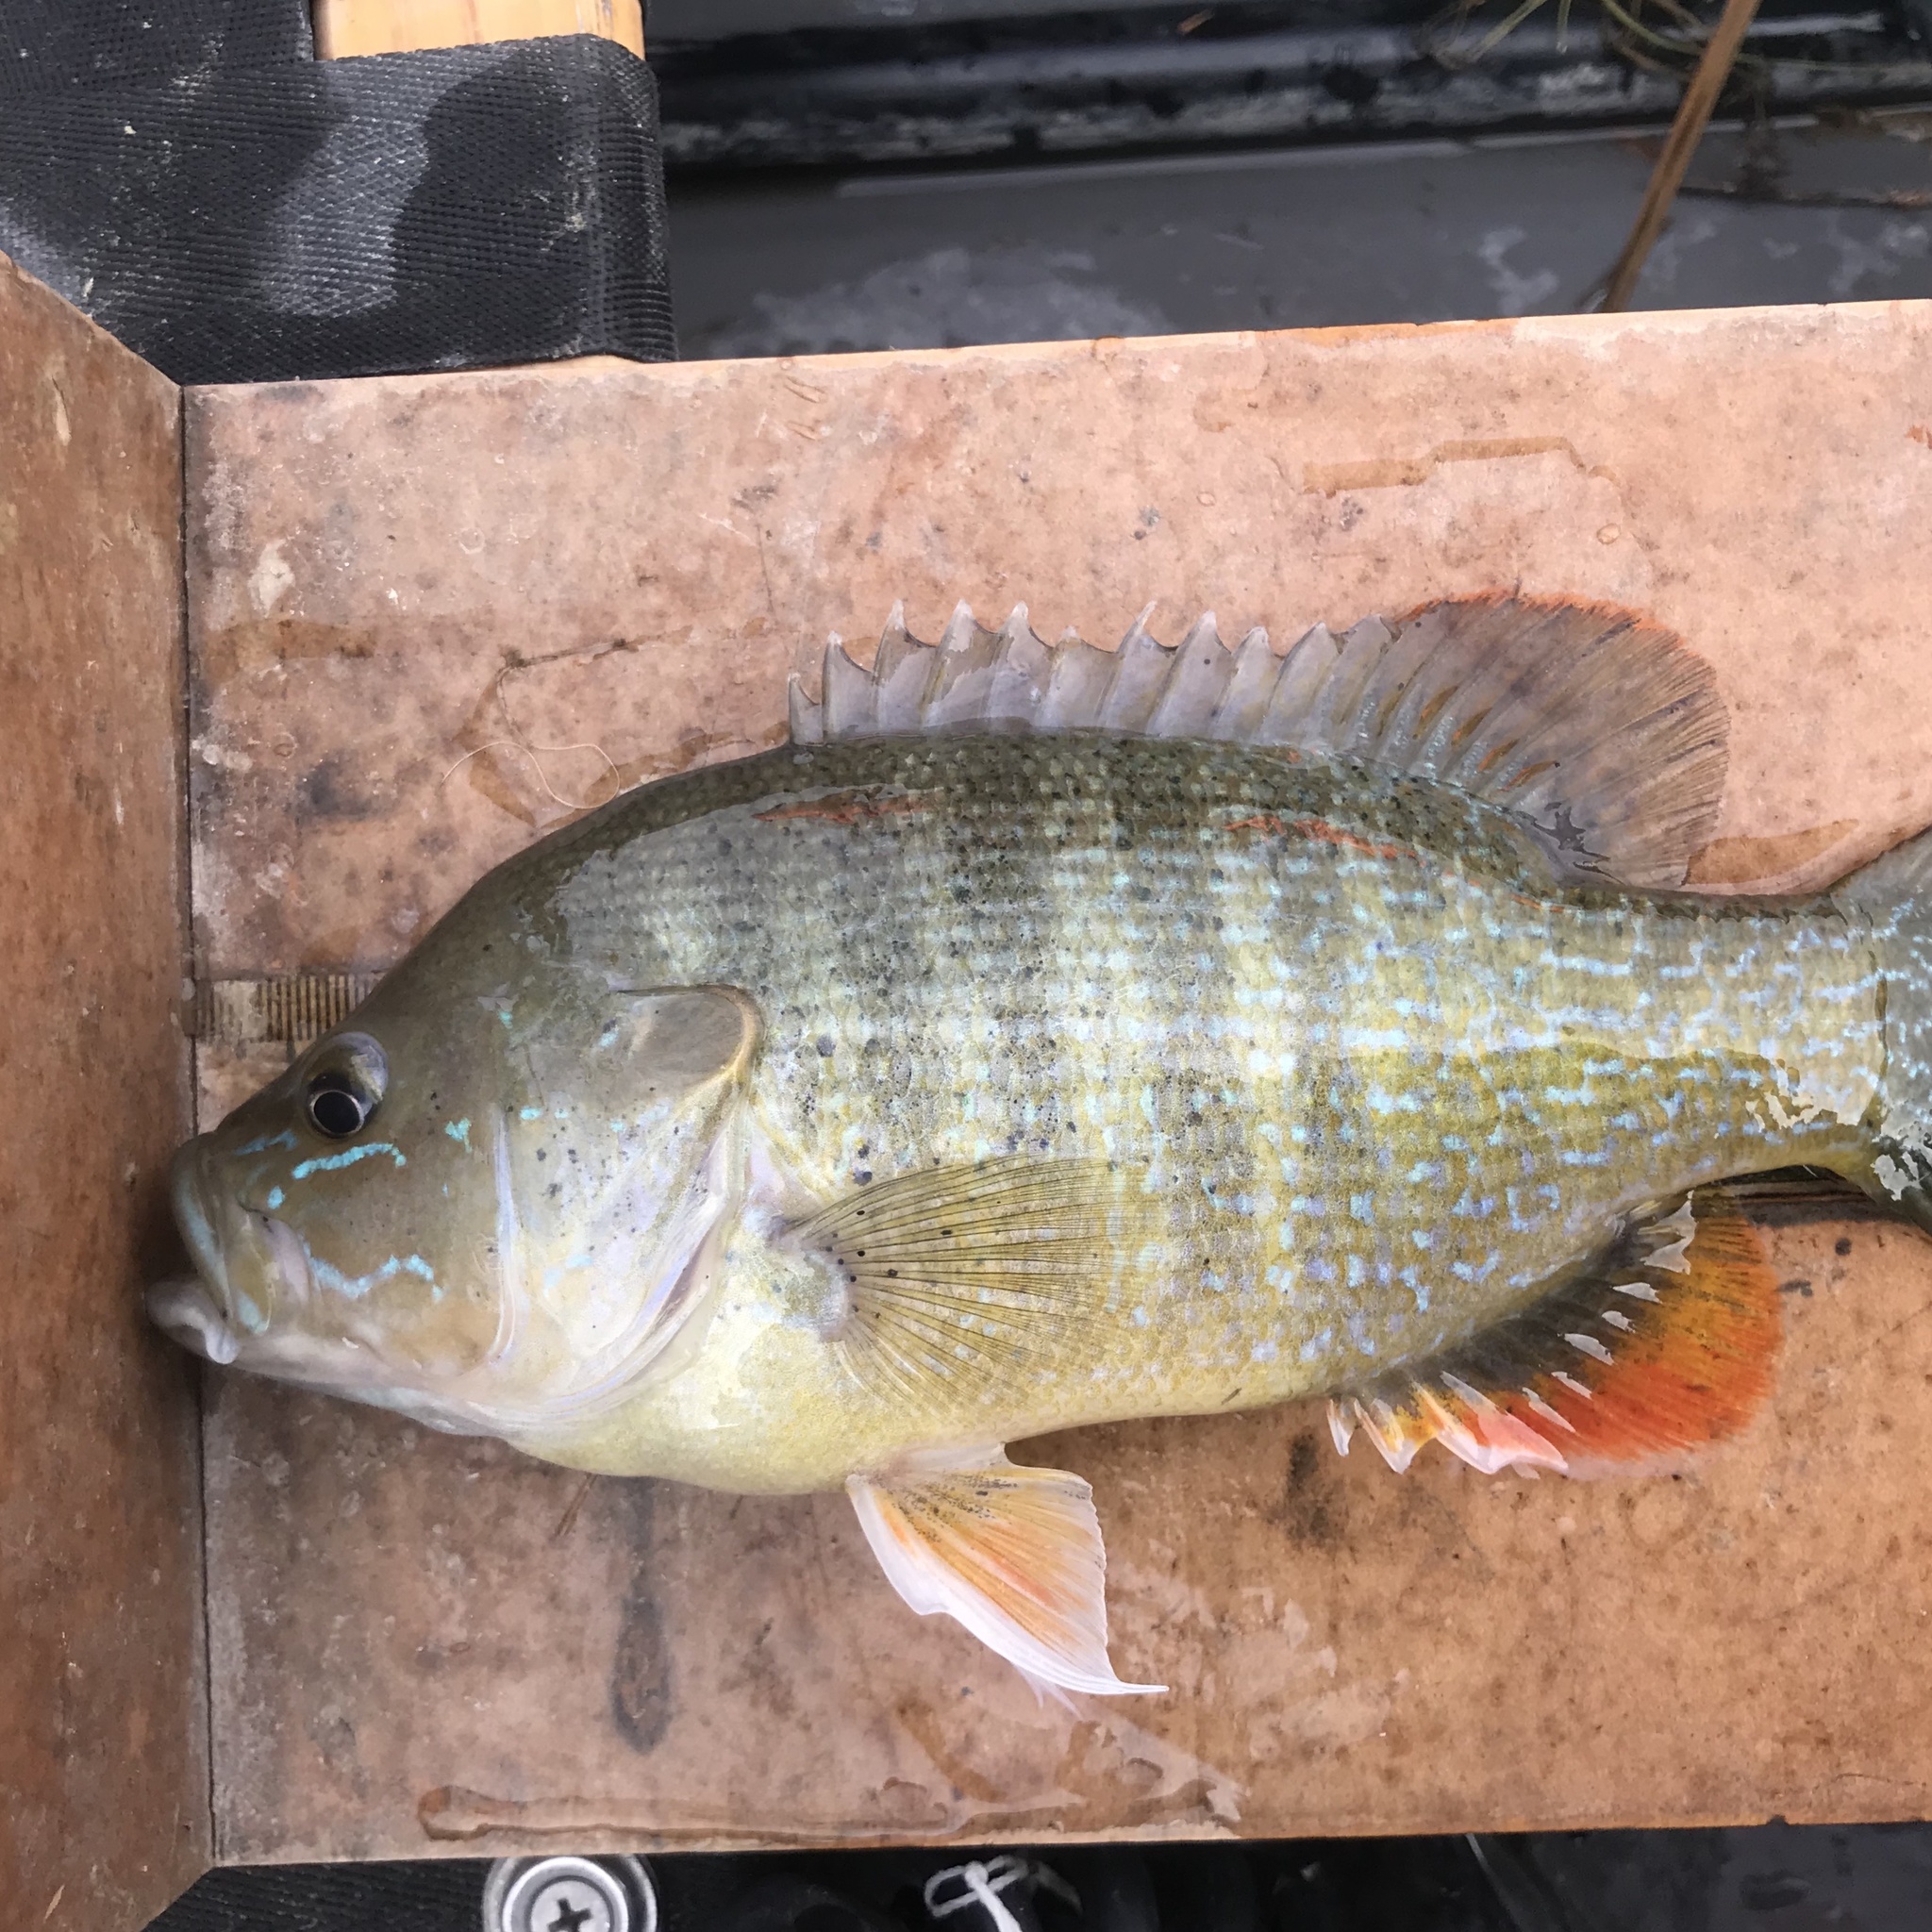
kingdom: Animalia
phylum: Chordata
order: Perciformes
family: Centrarchidae
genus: Lepomis
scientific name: Lepomis cyanellus
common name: Green sunfish
